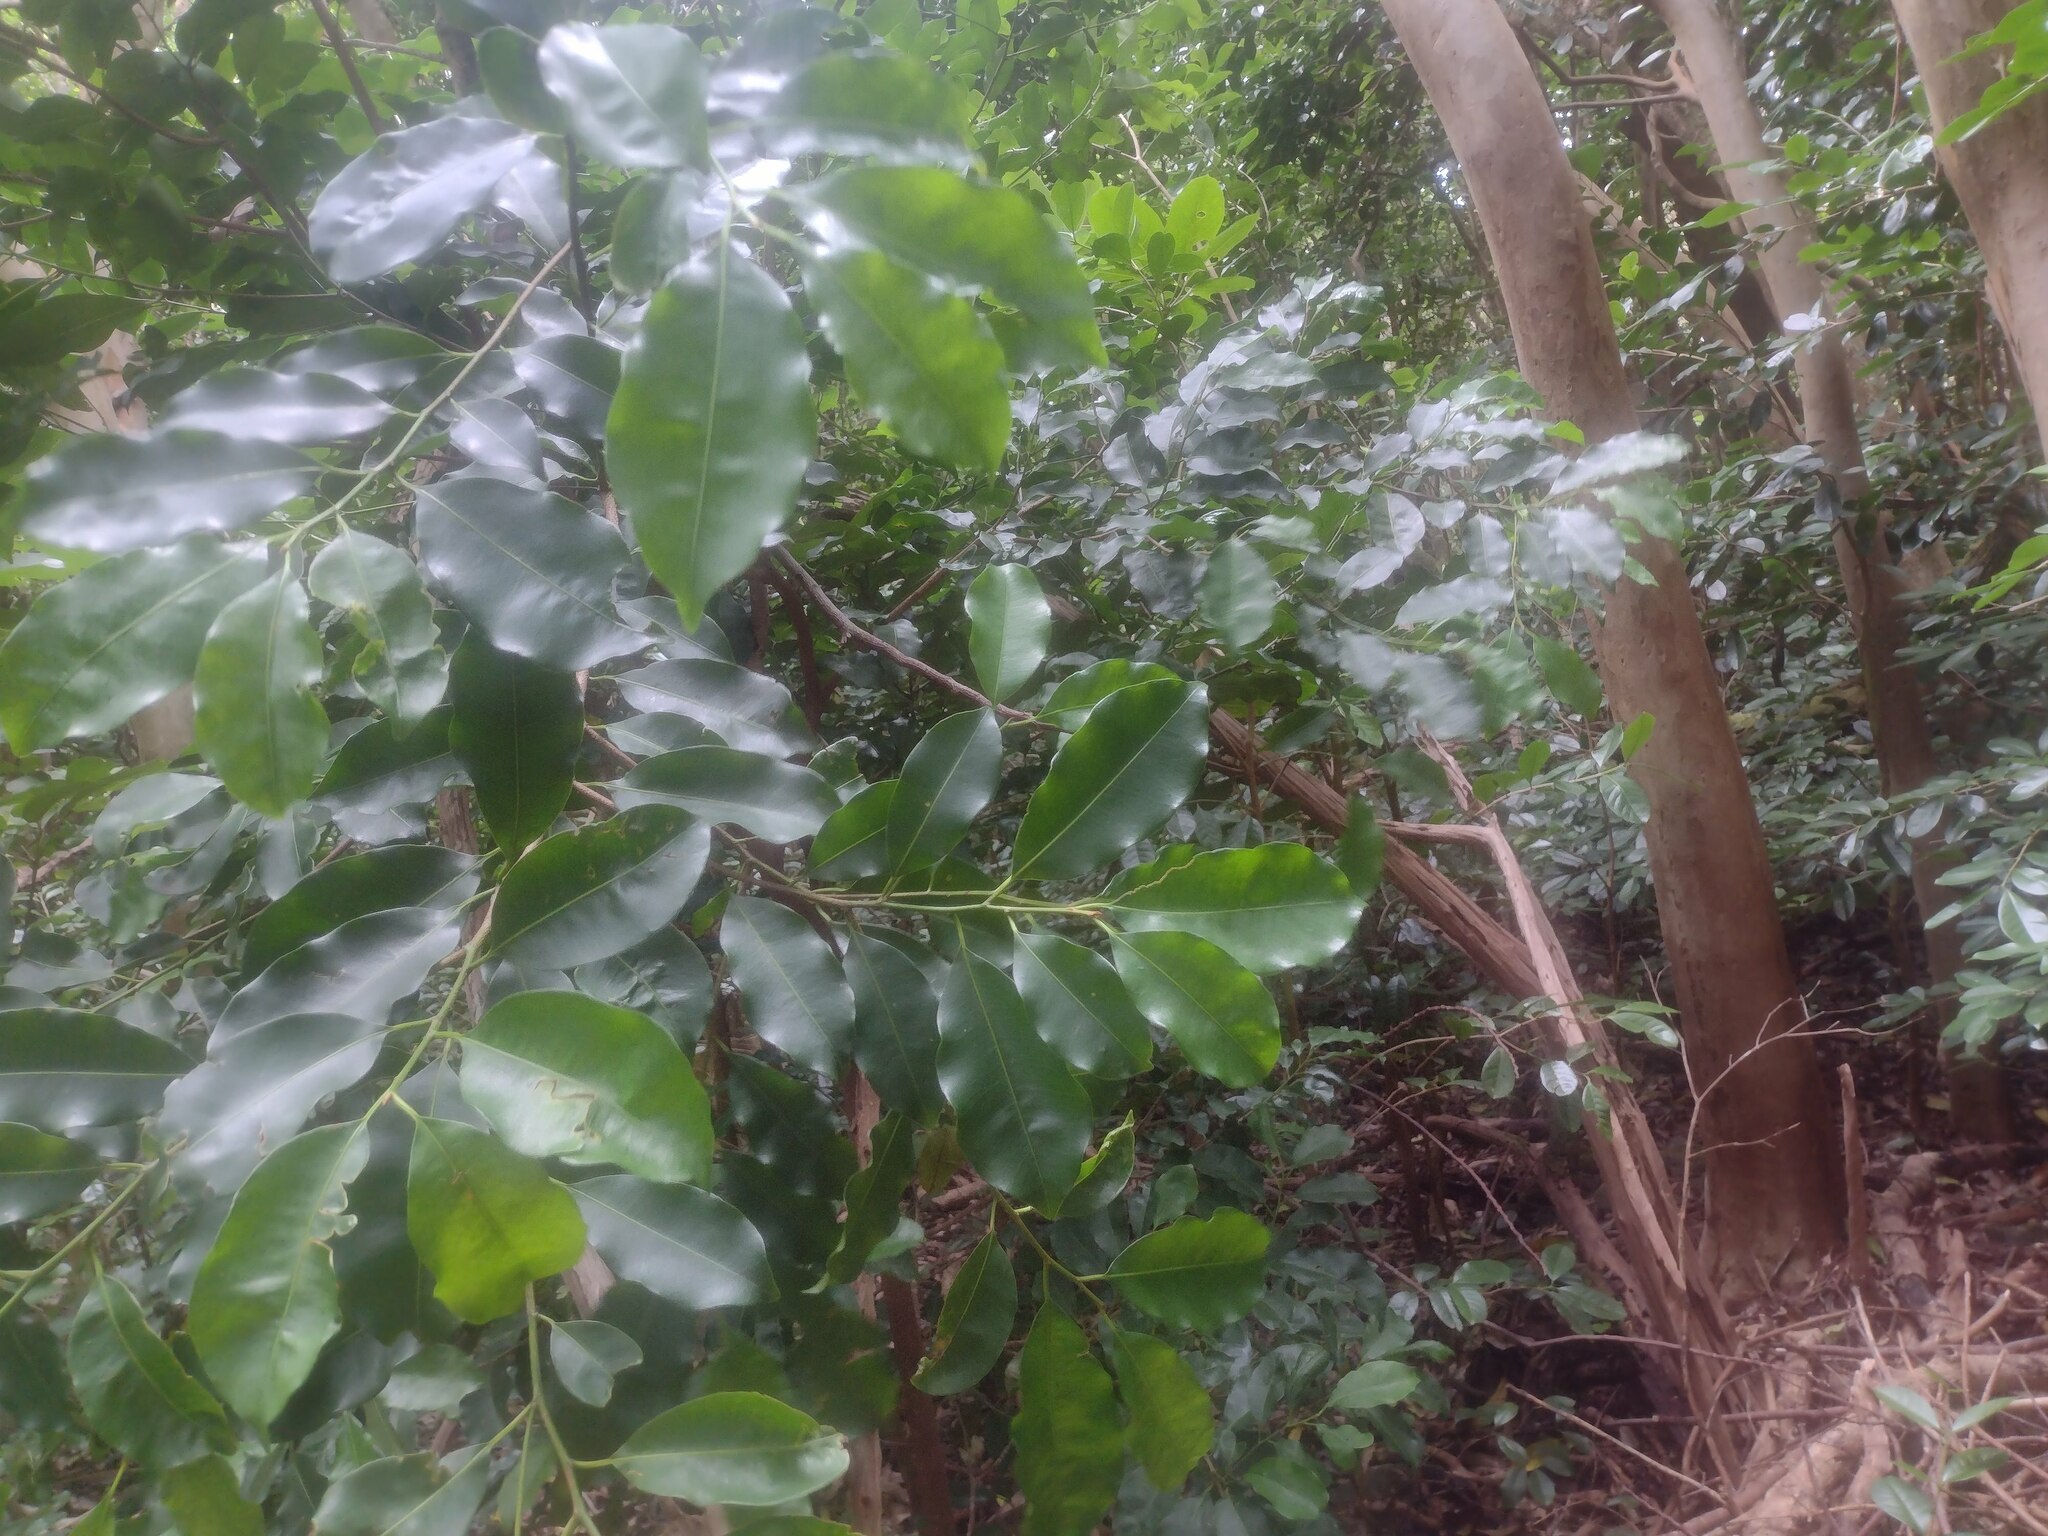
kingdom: Plantae
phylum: Tracheophyta
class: Magnoliopsida
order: Ericales
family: Sapotaceae
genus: Mimusops
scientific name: Mimusops elengi
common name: Spanish cherry
